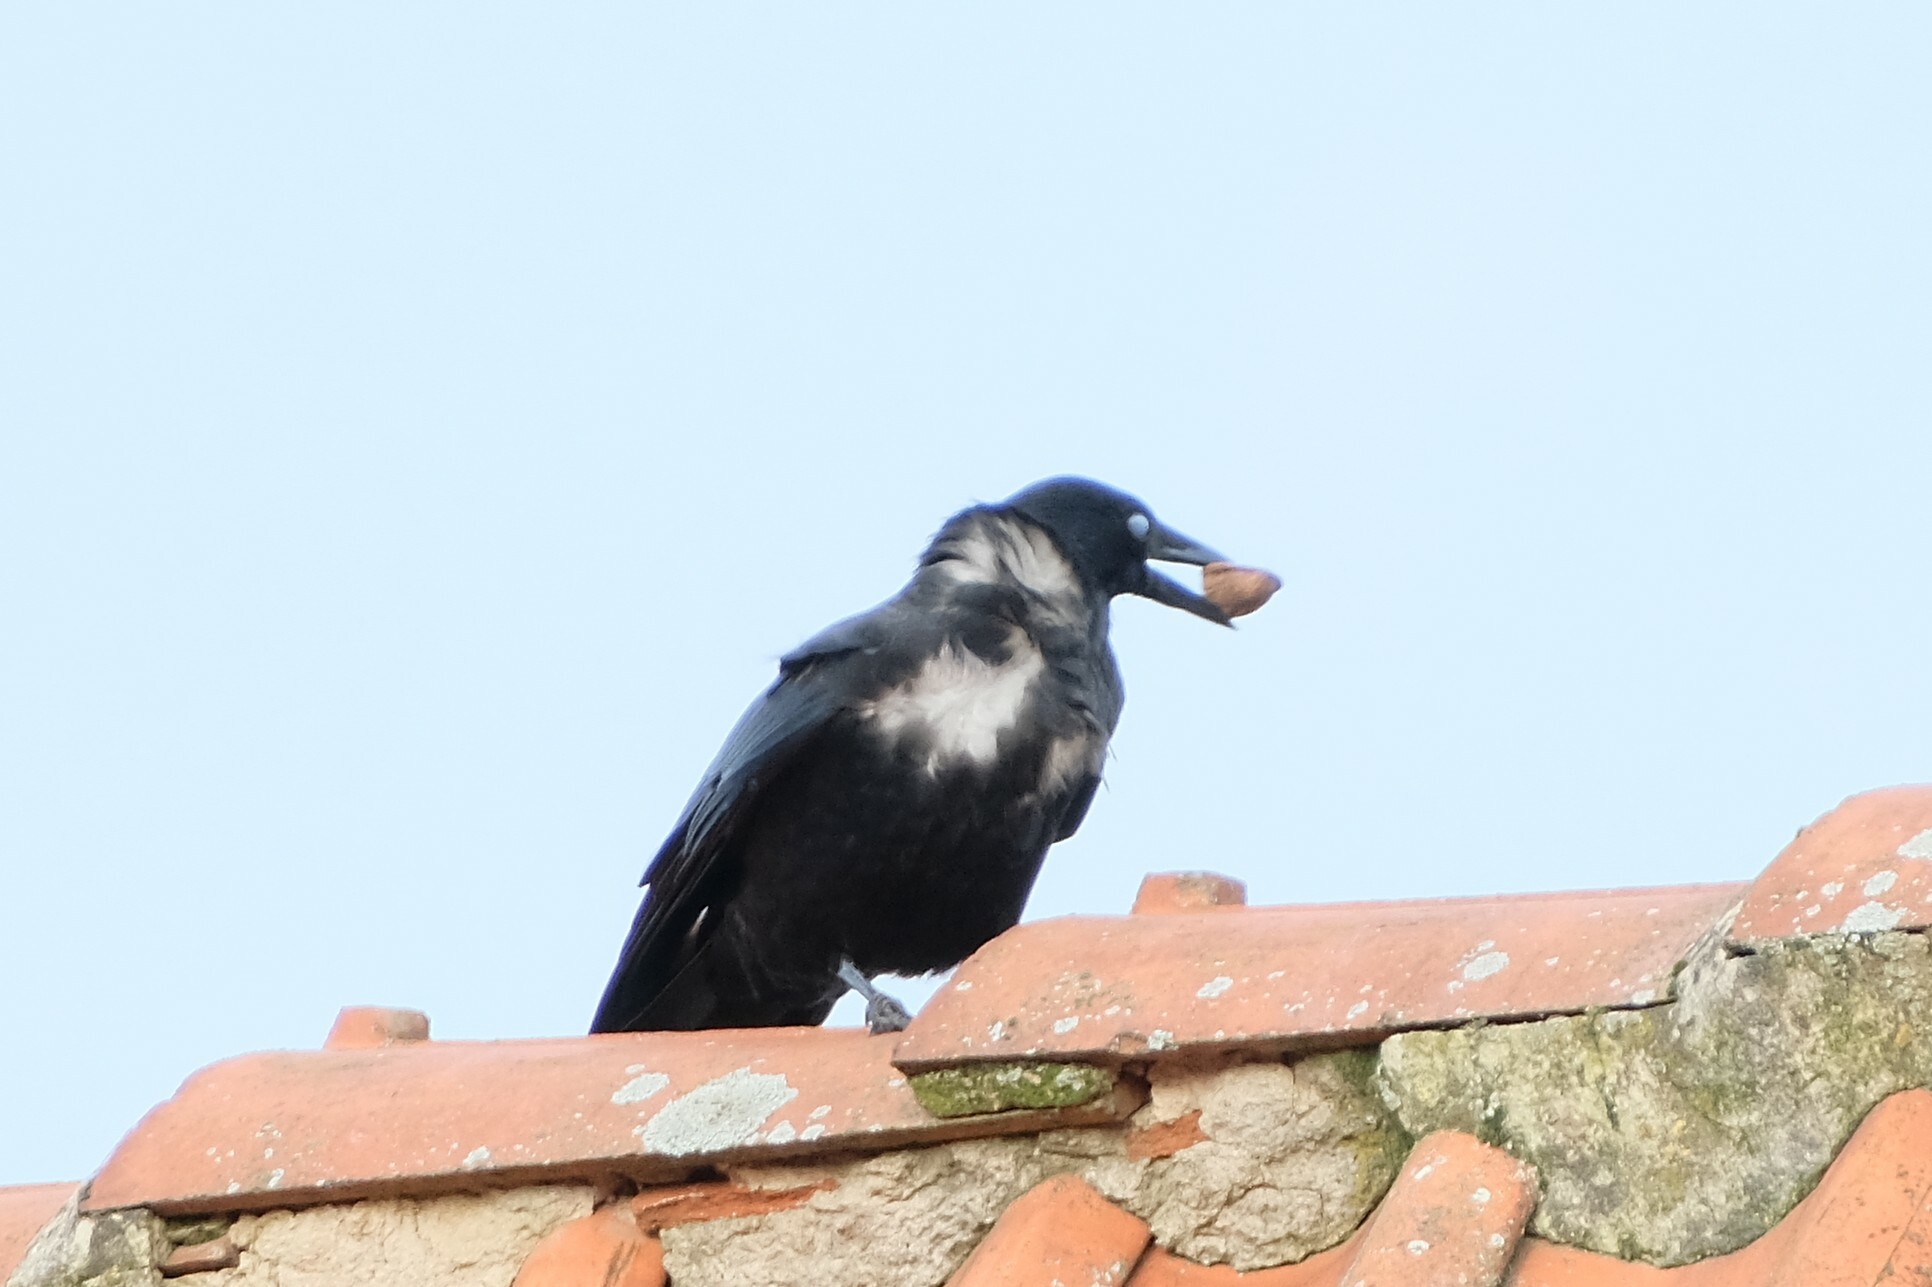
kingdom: Animalia
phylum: Chordata
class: Aves
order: Passeriformes
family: Corvidae
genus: Corvus
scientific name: Corvus corone
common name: Carrion crow
